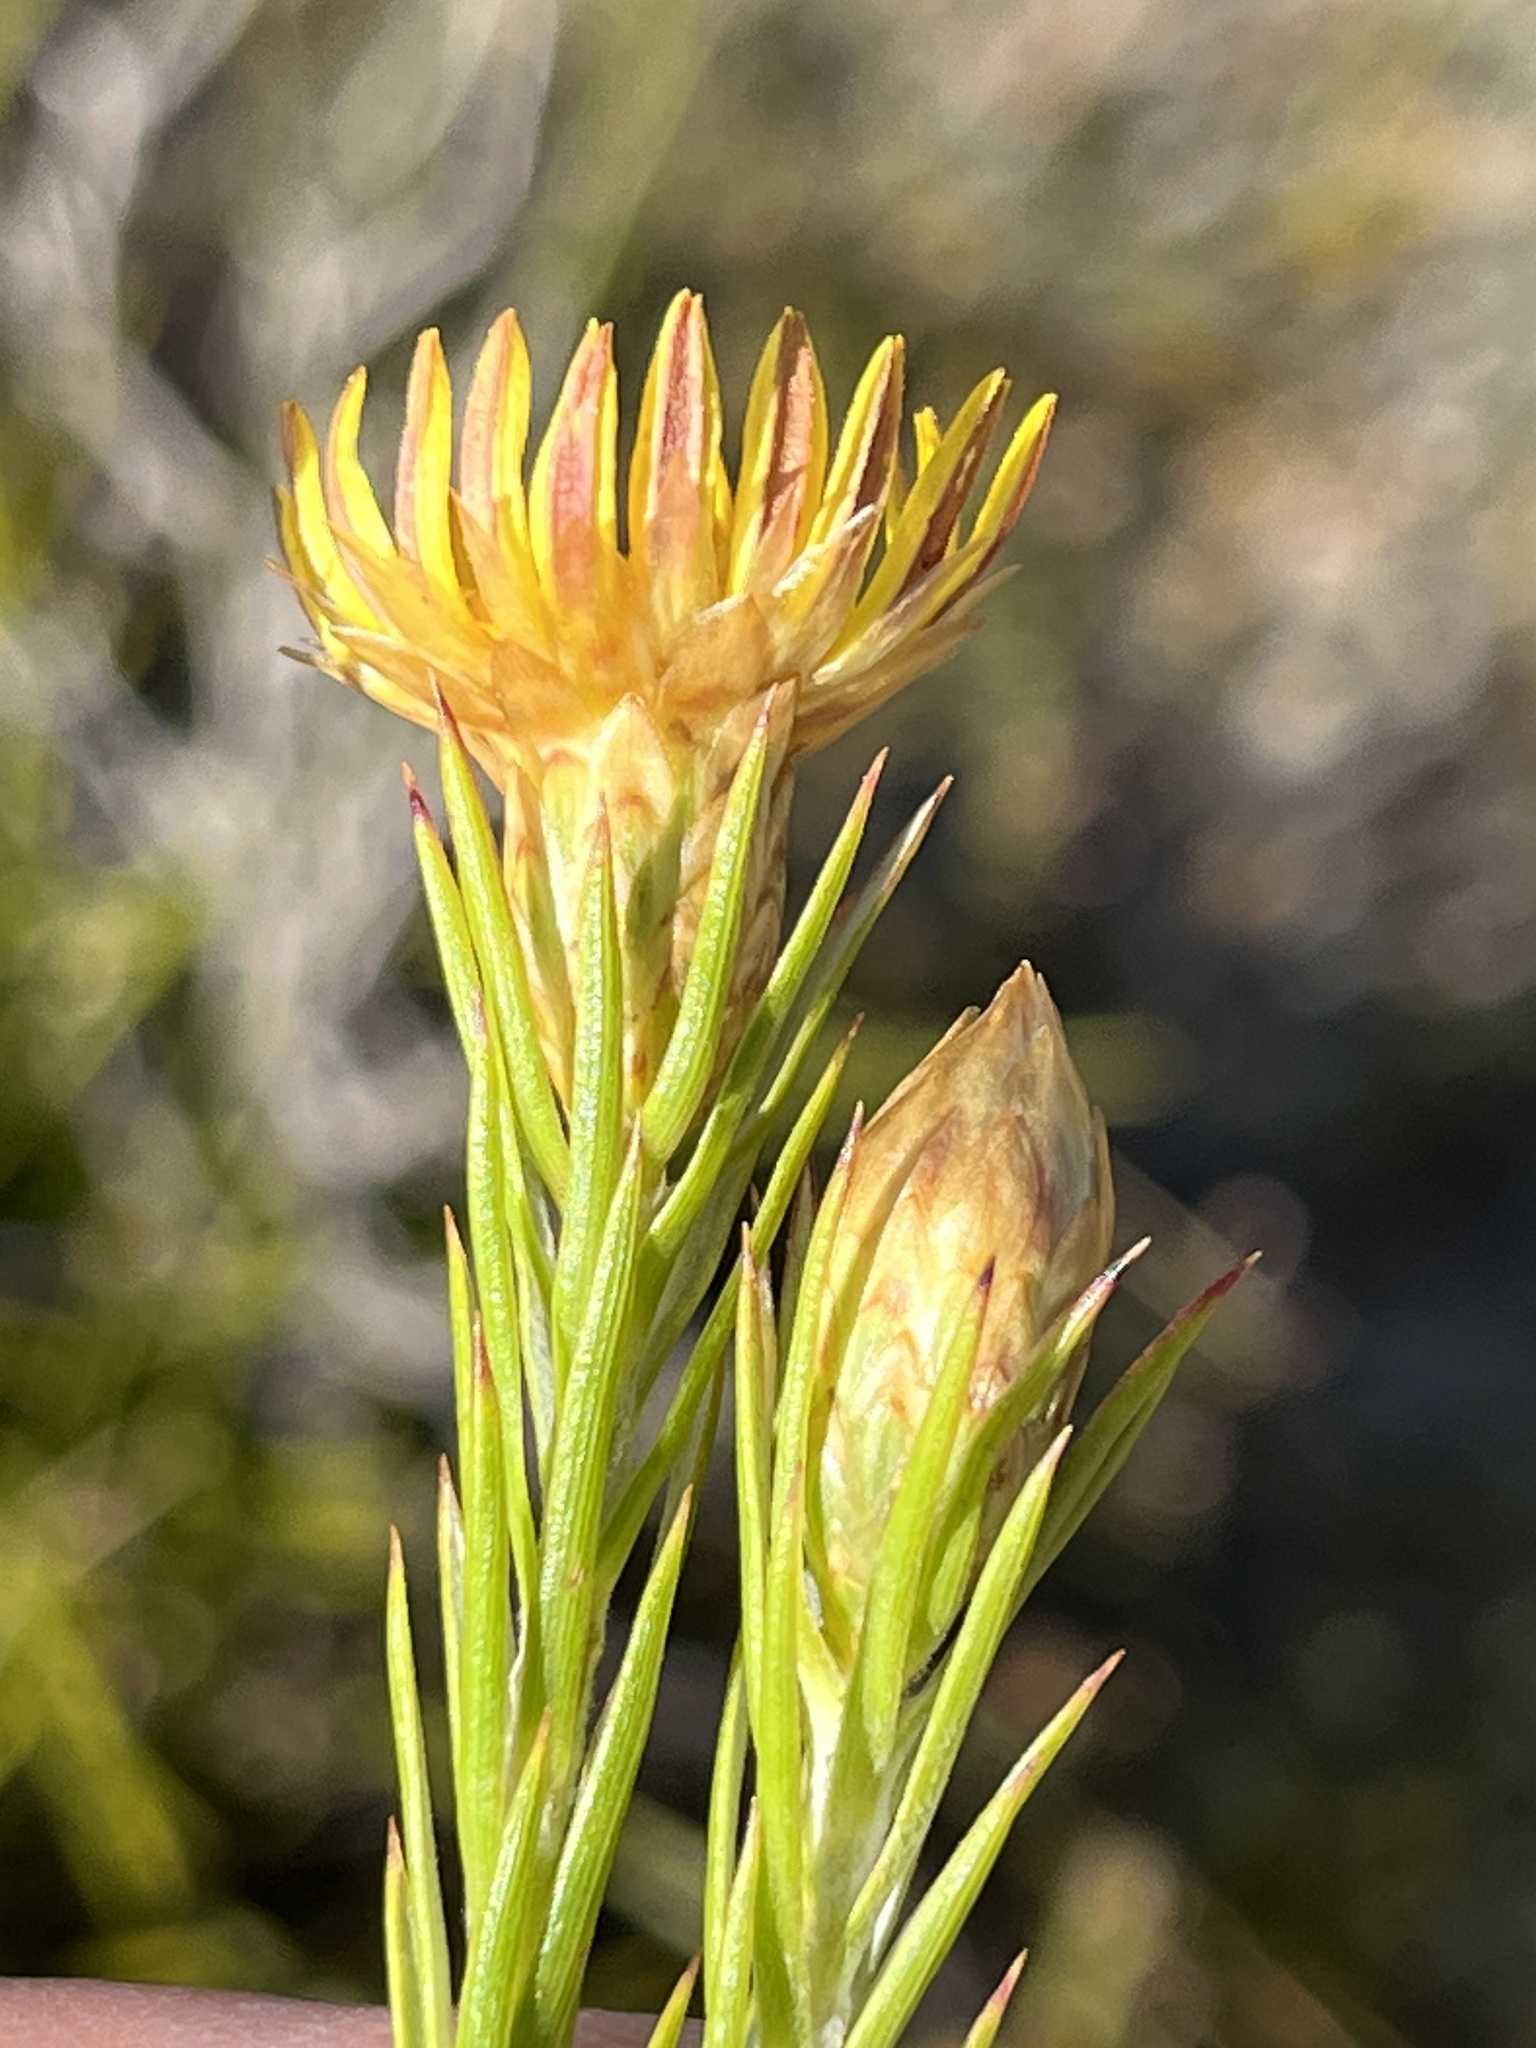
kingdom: Plantae
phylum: Tracheophyta
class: Magnoliopsida
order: Asterales
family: Asteraceae
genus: Oedera
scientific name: Oedera pungens
